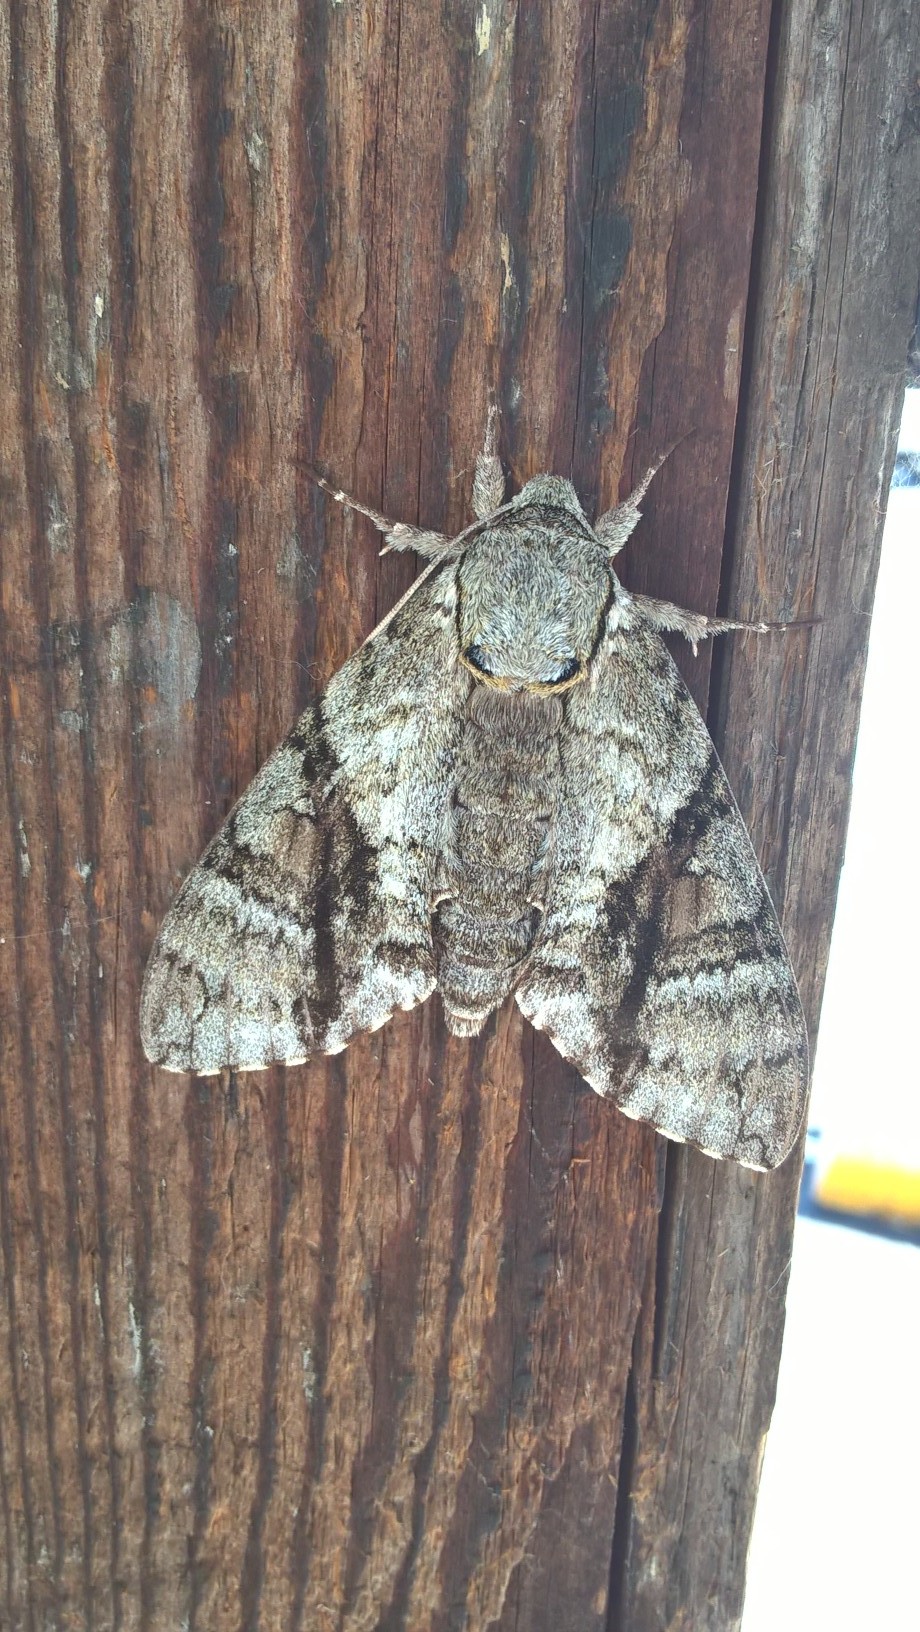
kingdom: Animalia
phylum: Arthropoda
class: Insecta
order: Lepidoptera
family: Sphingidae
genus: Manduca
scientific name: Manduca jasminearum
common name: Ash sphinx
